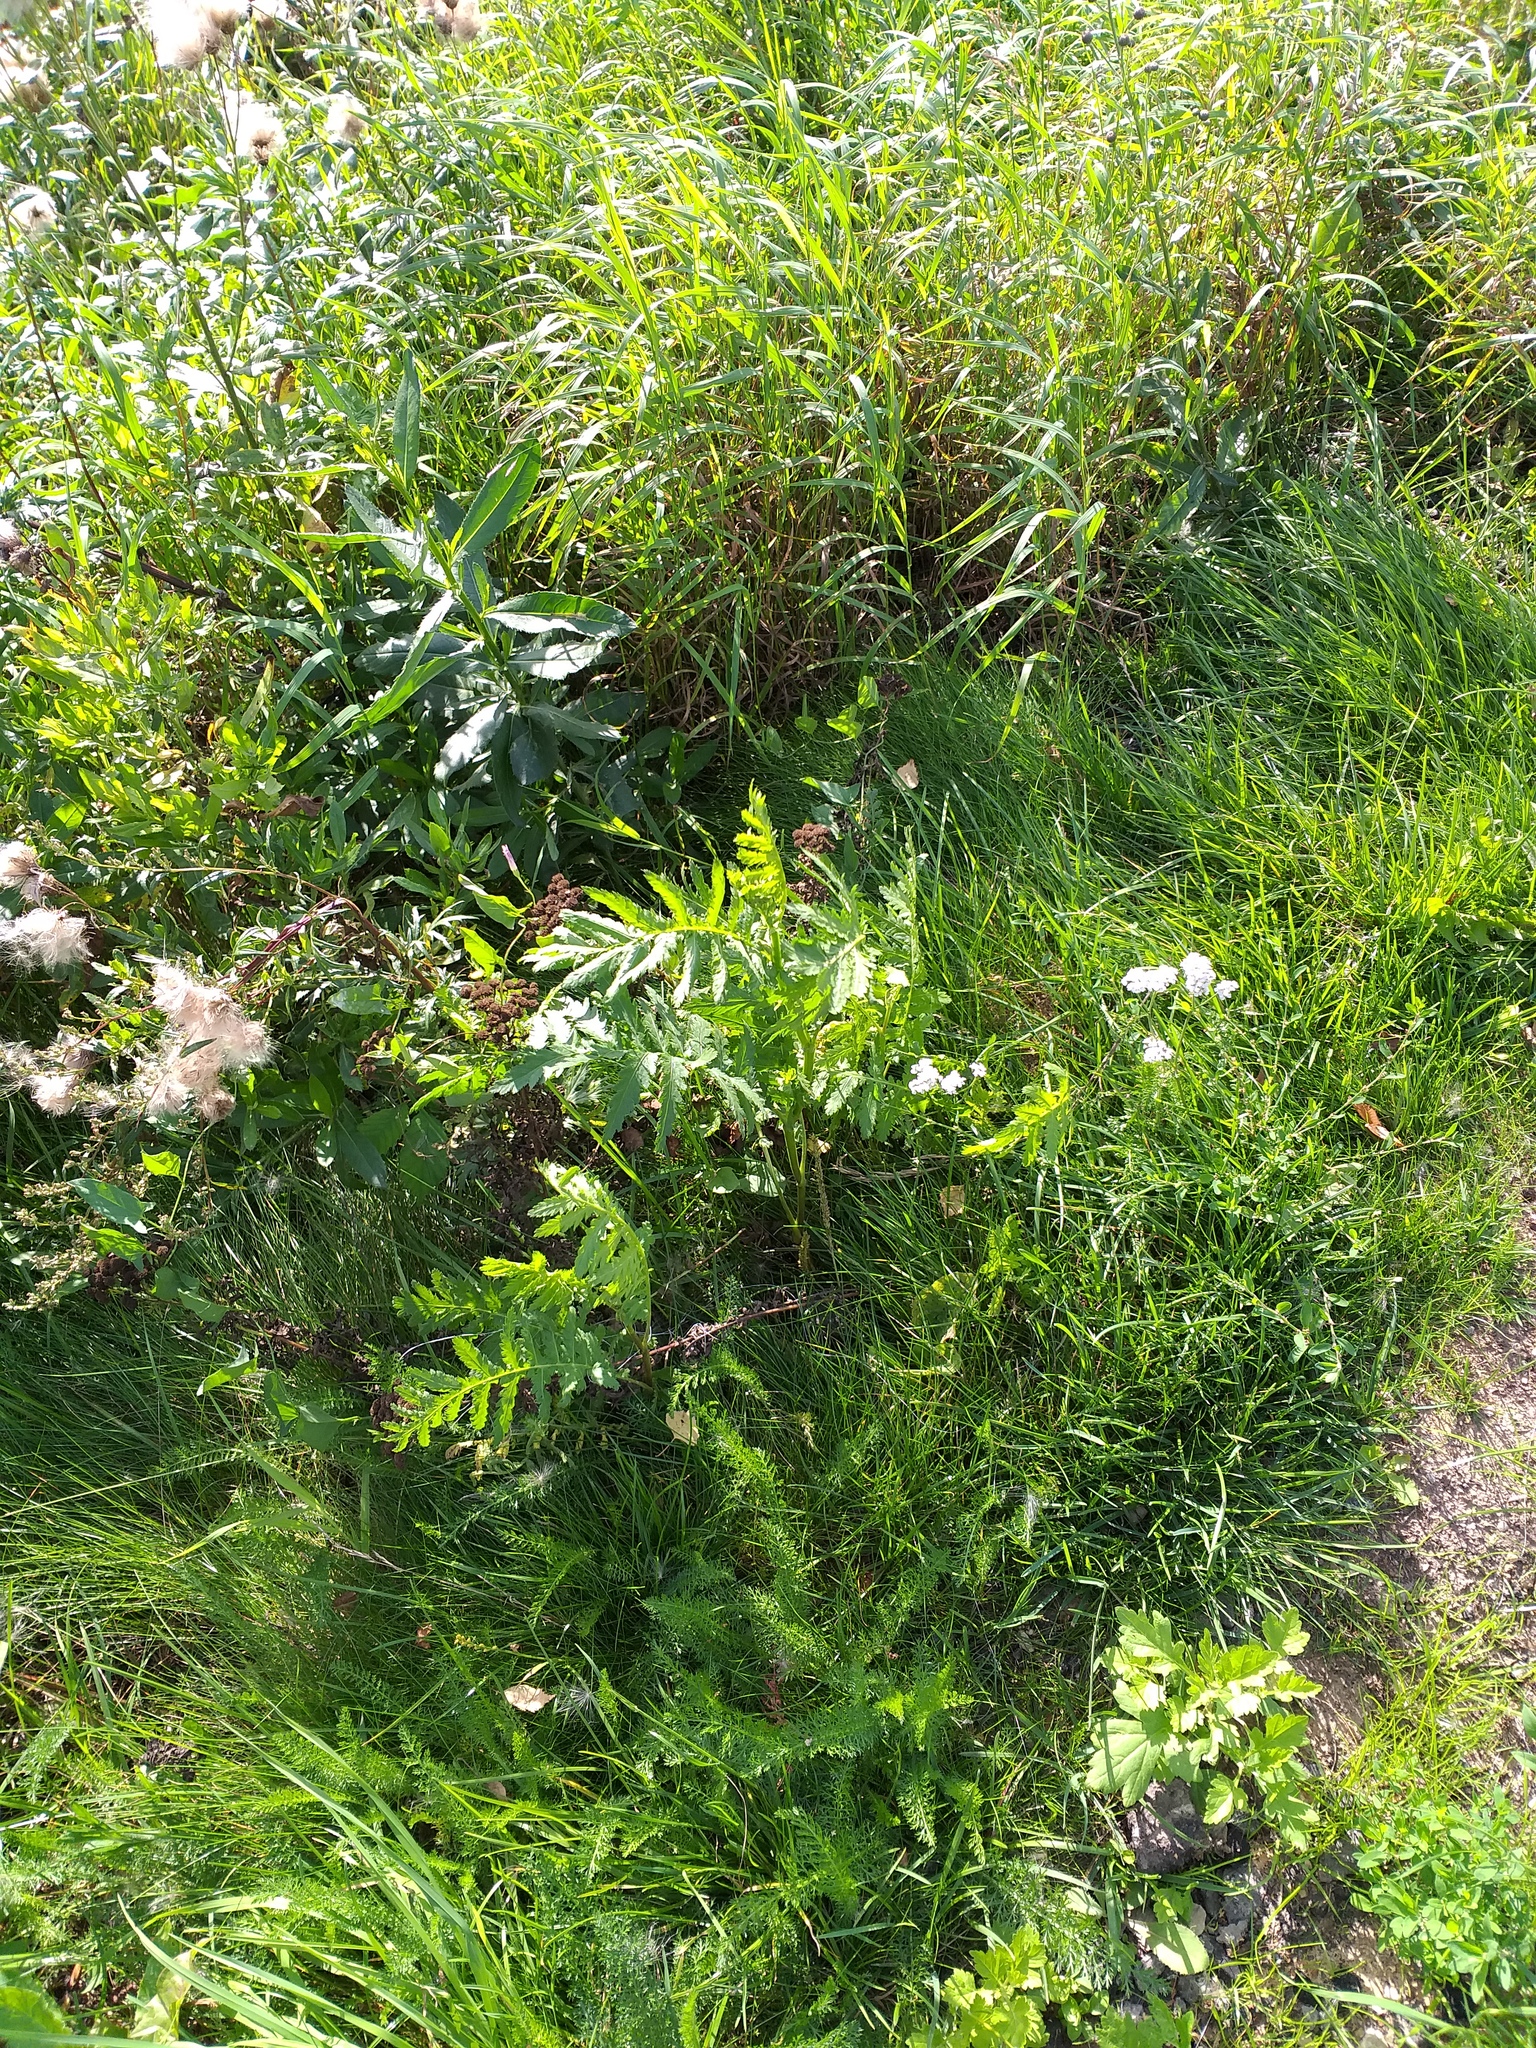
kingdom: Plantae
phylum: Tracheophyta
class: Magnoliopsida
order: Asterales
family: Asteraceae
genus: Tanacetum
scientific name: Tanacetum vulgare
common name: Common tansy
